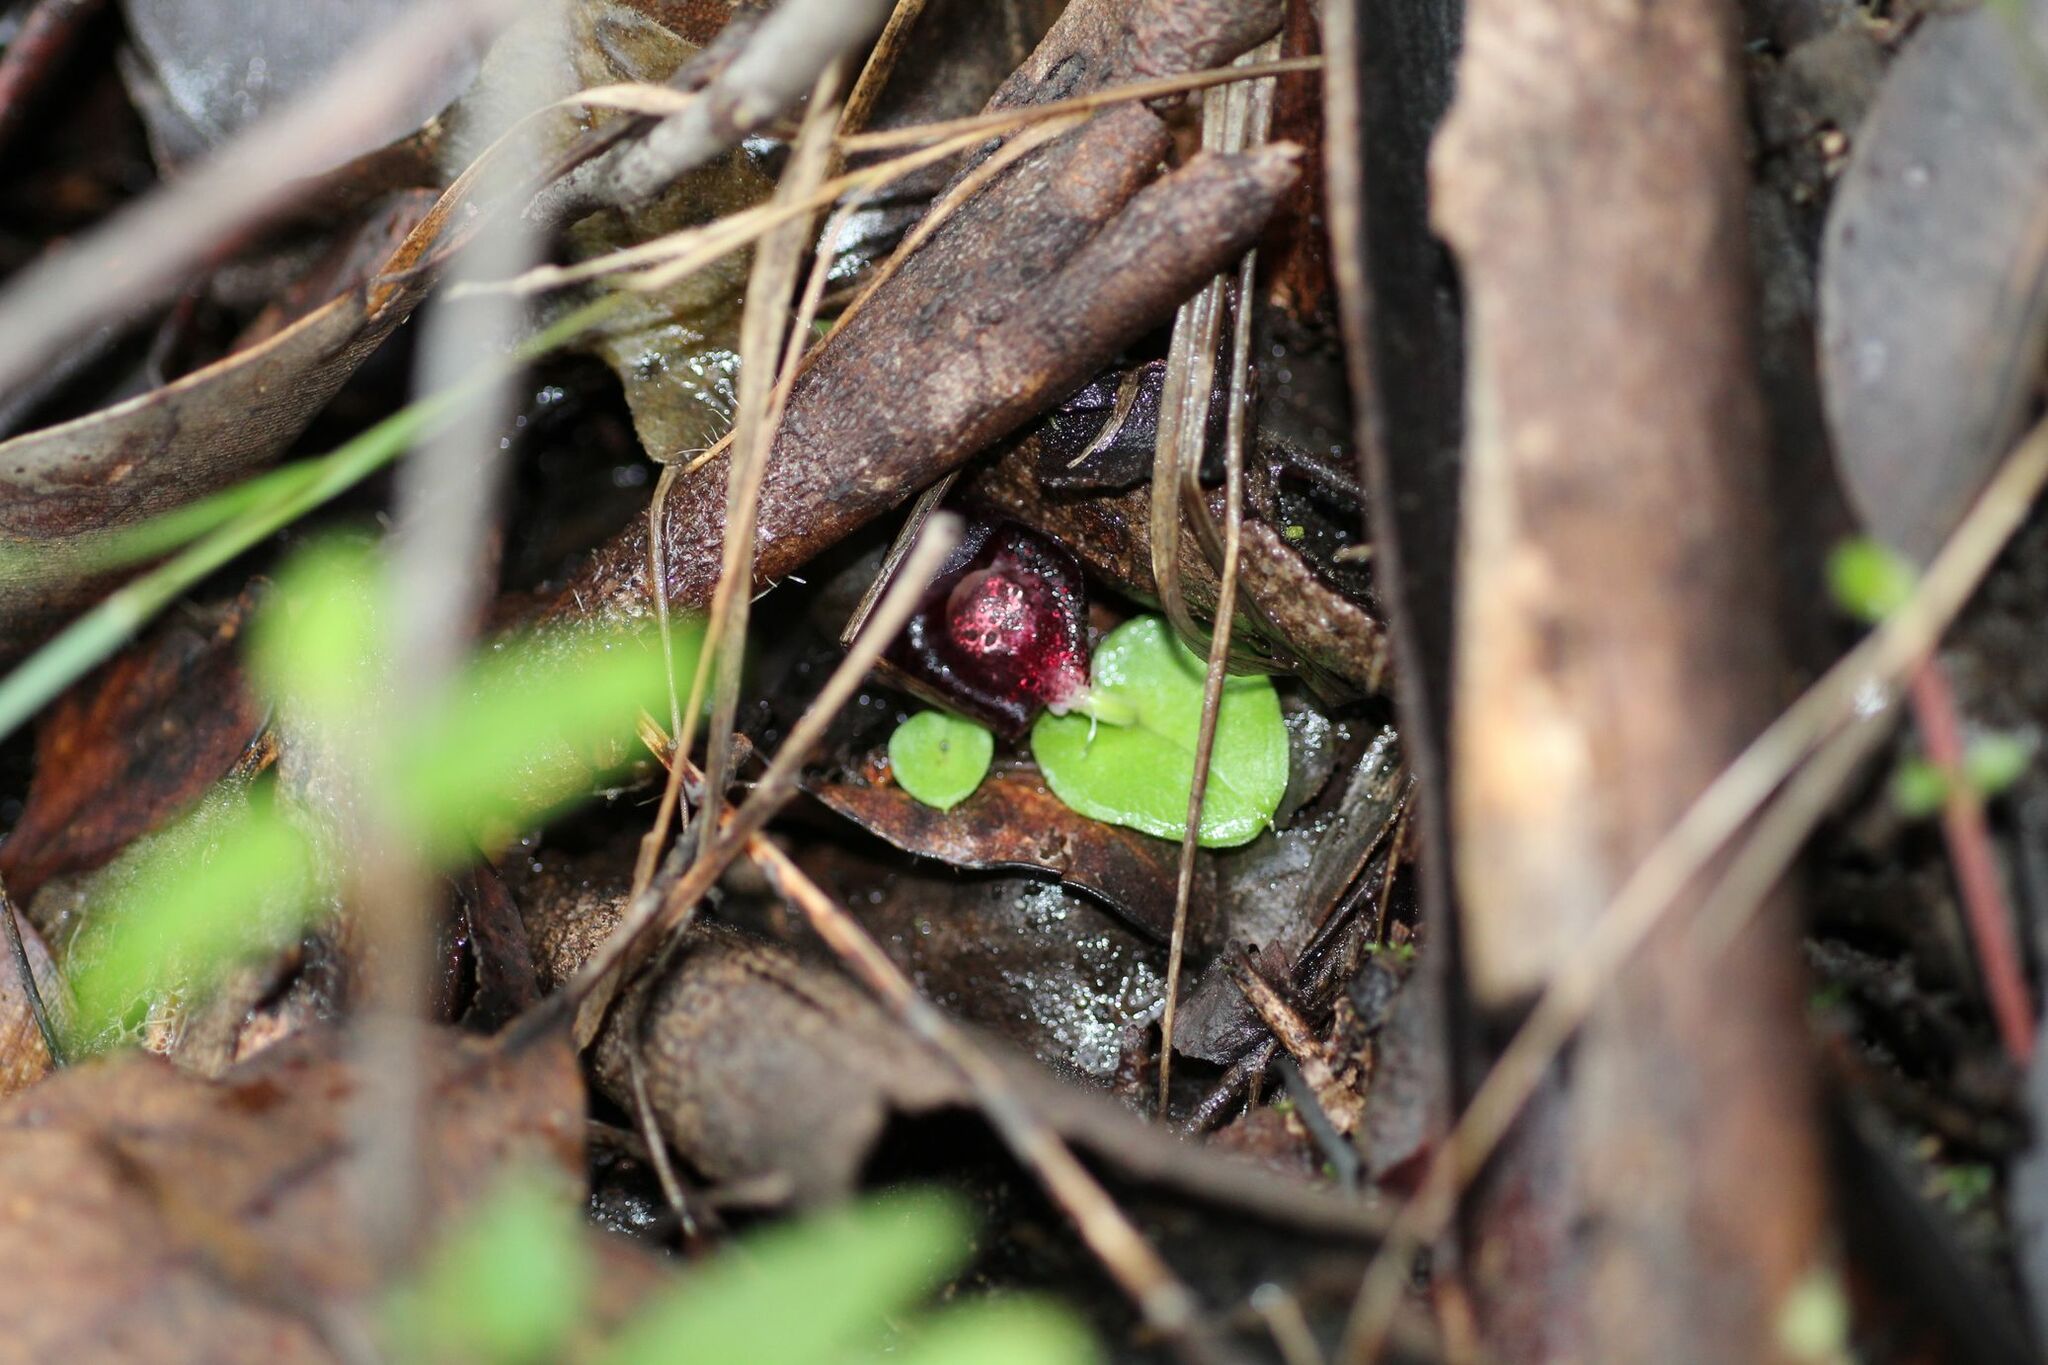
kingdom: Plantae
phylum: Tracheophyta
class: Liliopsida
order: Asparagales
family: Orchidaceae
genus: Corybas
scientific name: Corybas recurvus
